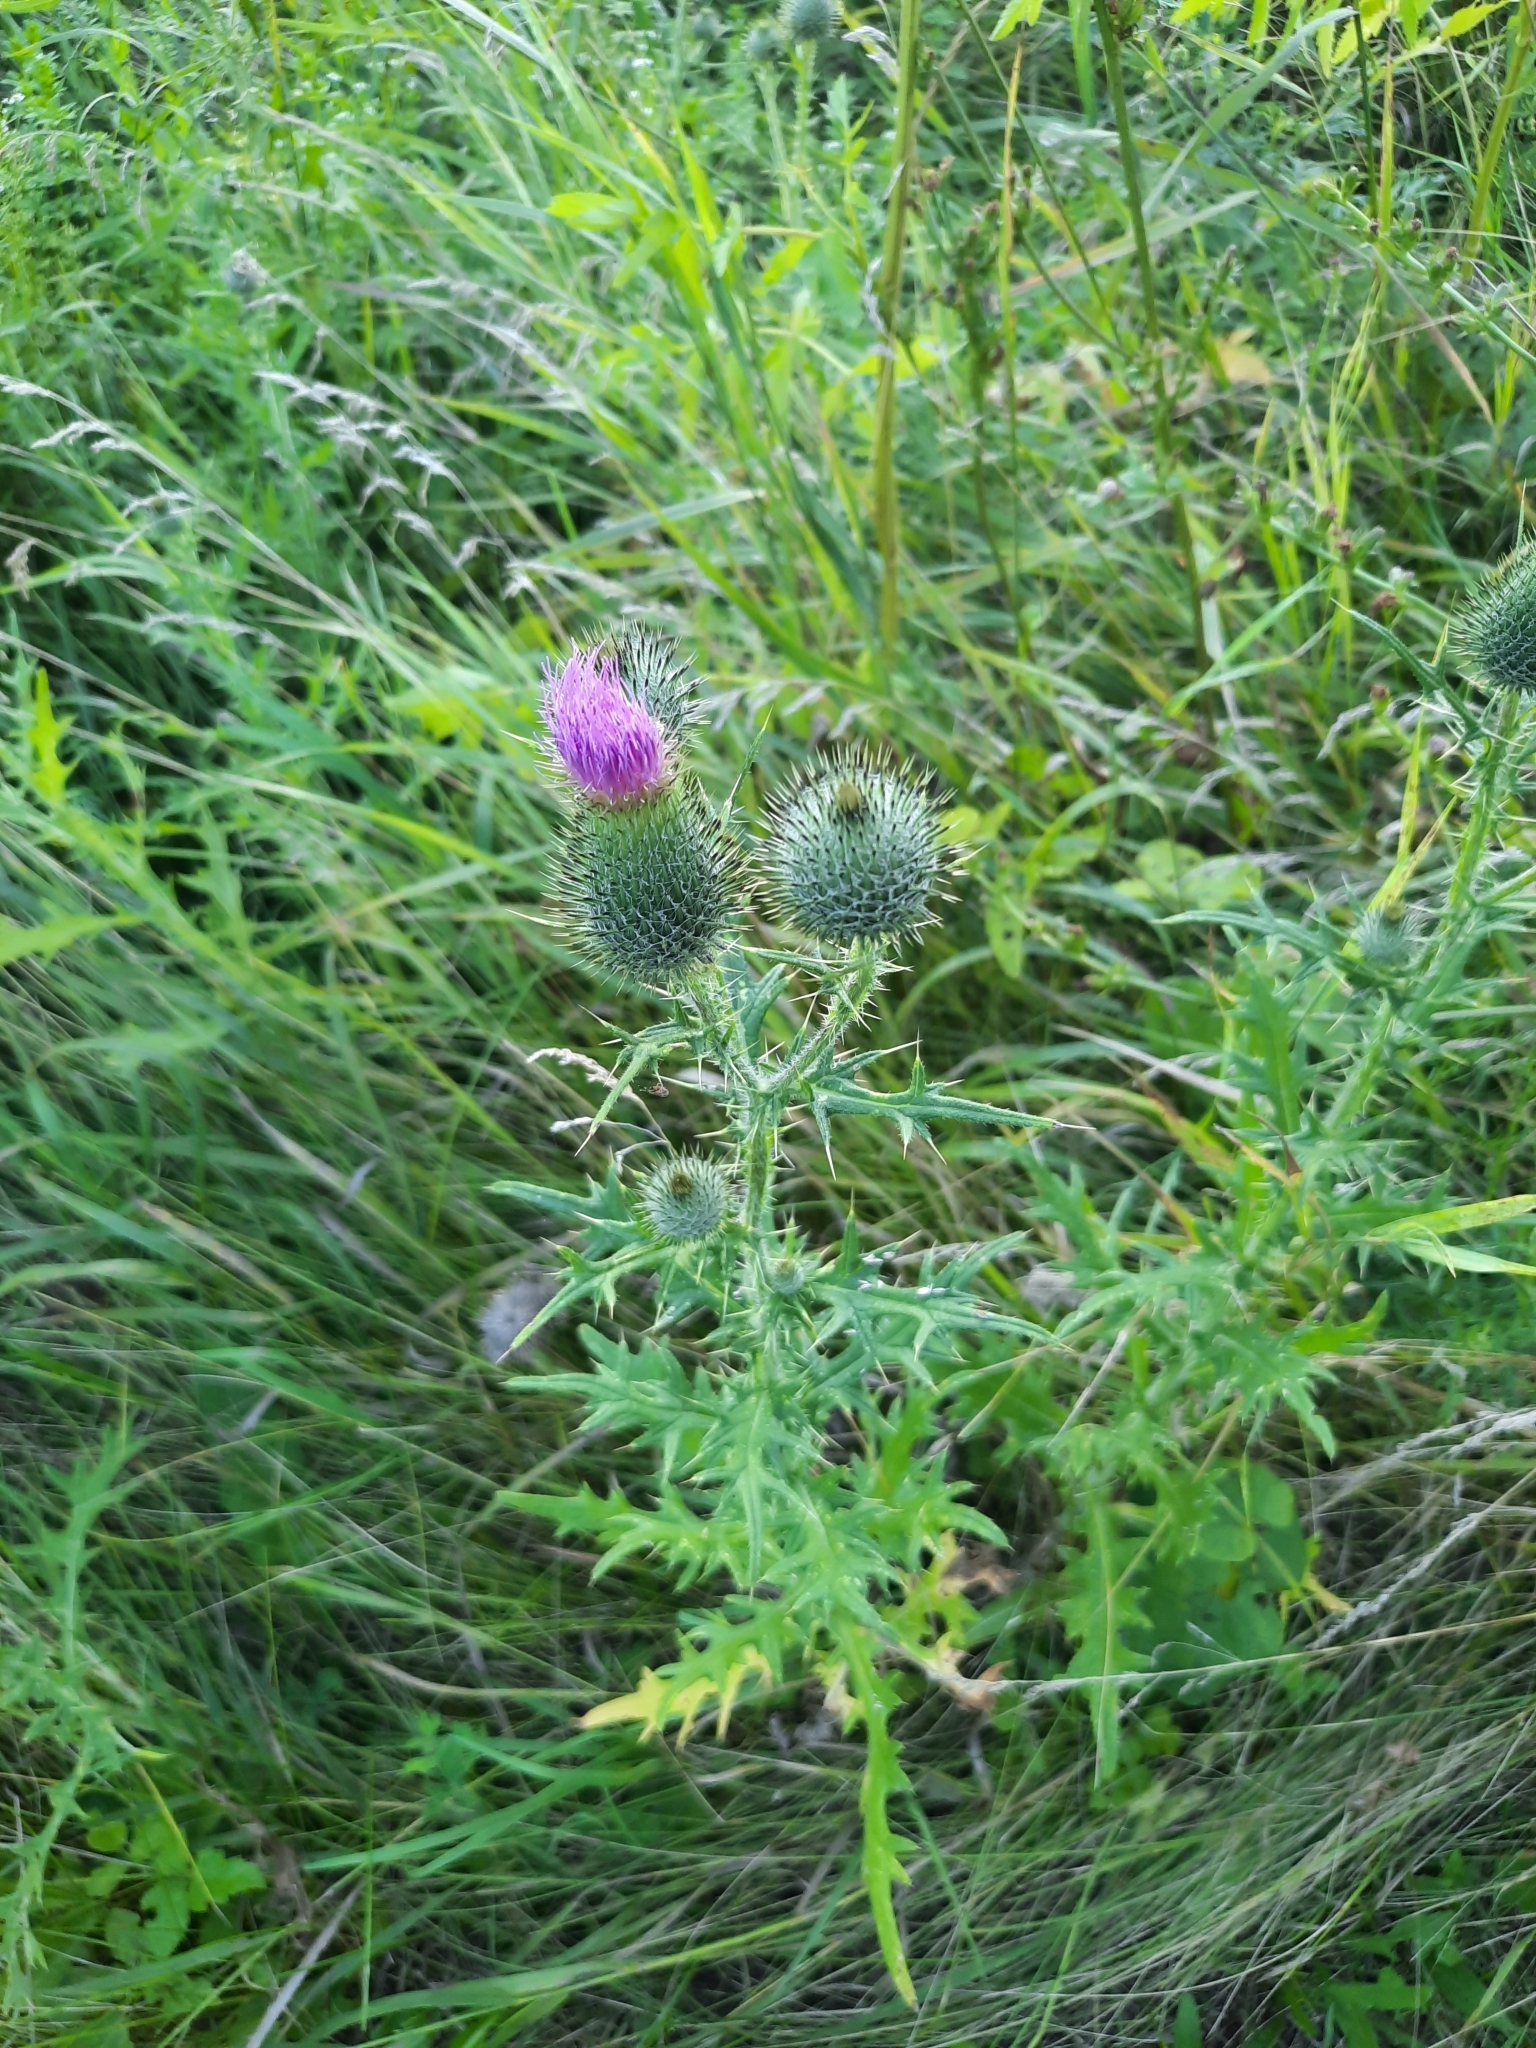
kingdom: Plantae
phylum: Tracheophyta
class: Magnoliopsida
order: Asterales
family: Asteraceae
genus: Cirsium
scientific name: Cirsium vulgare
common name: Bull thistle
